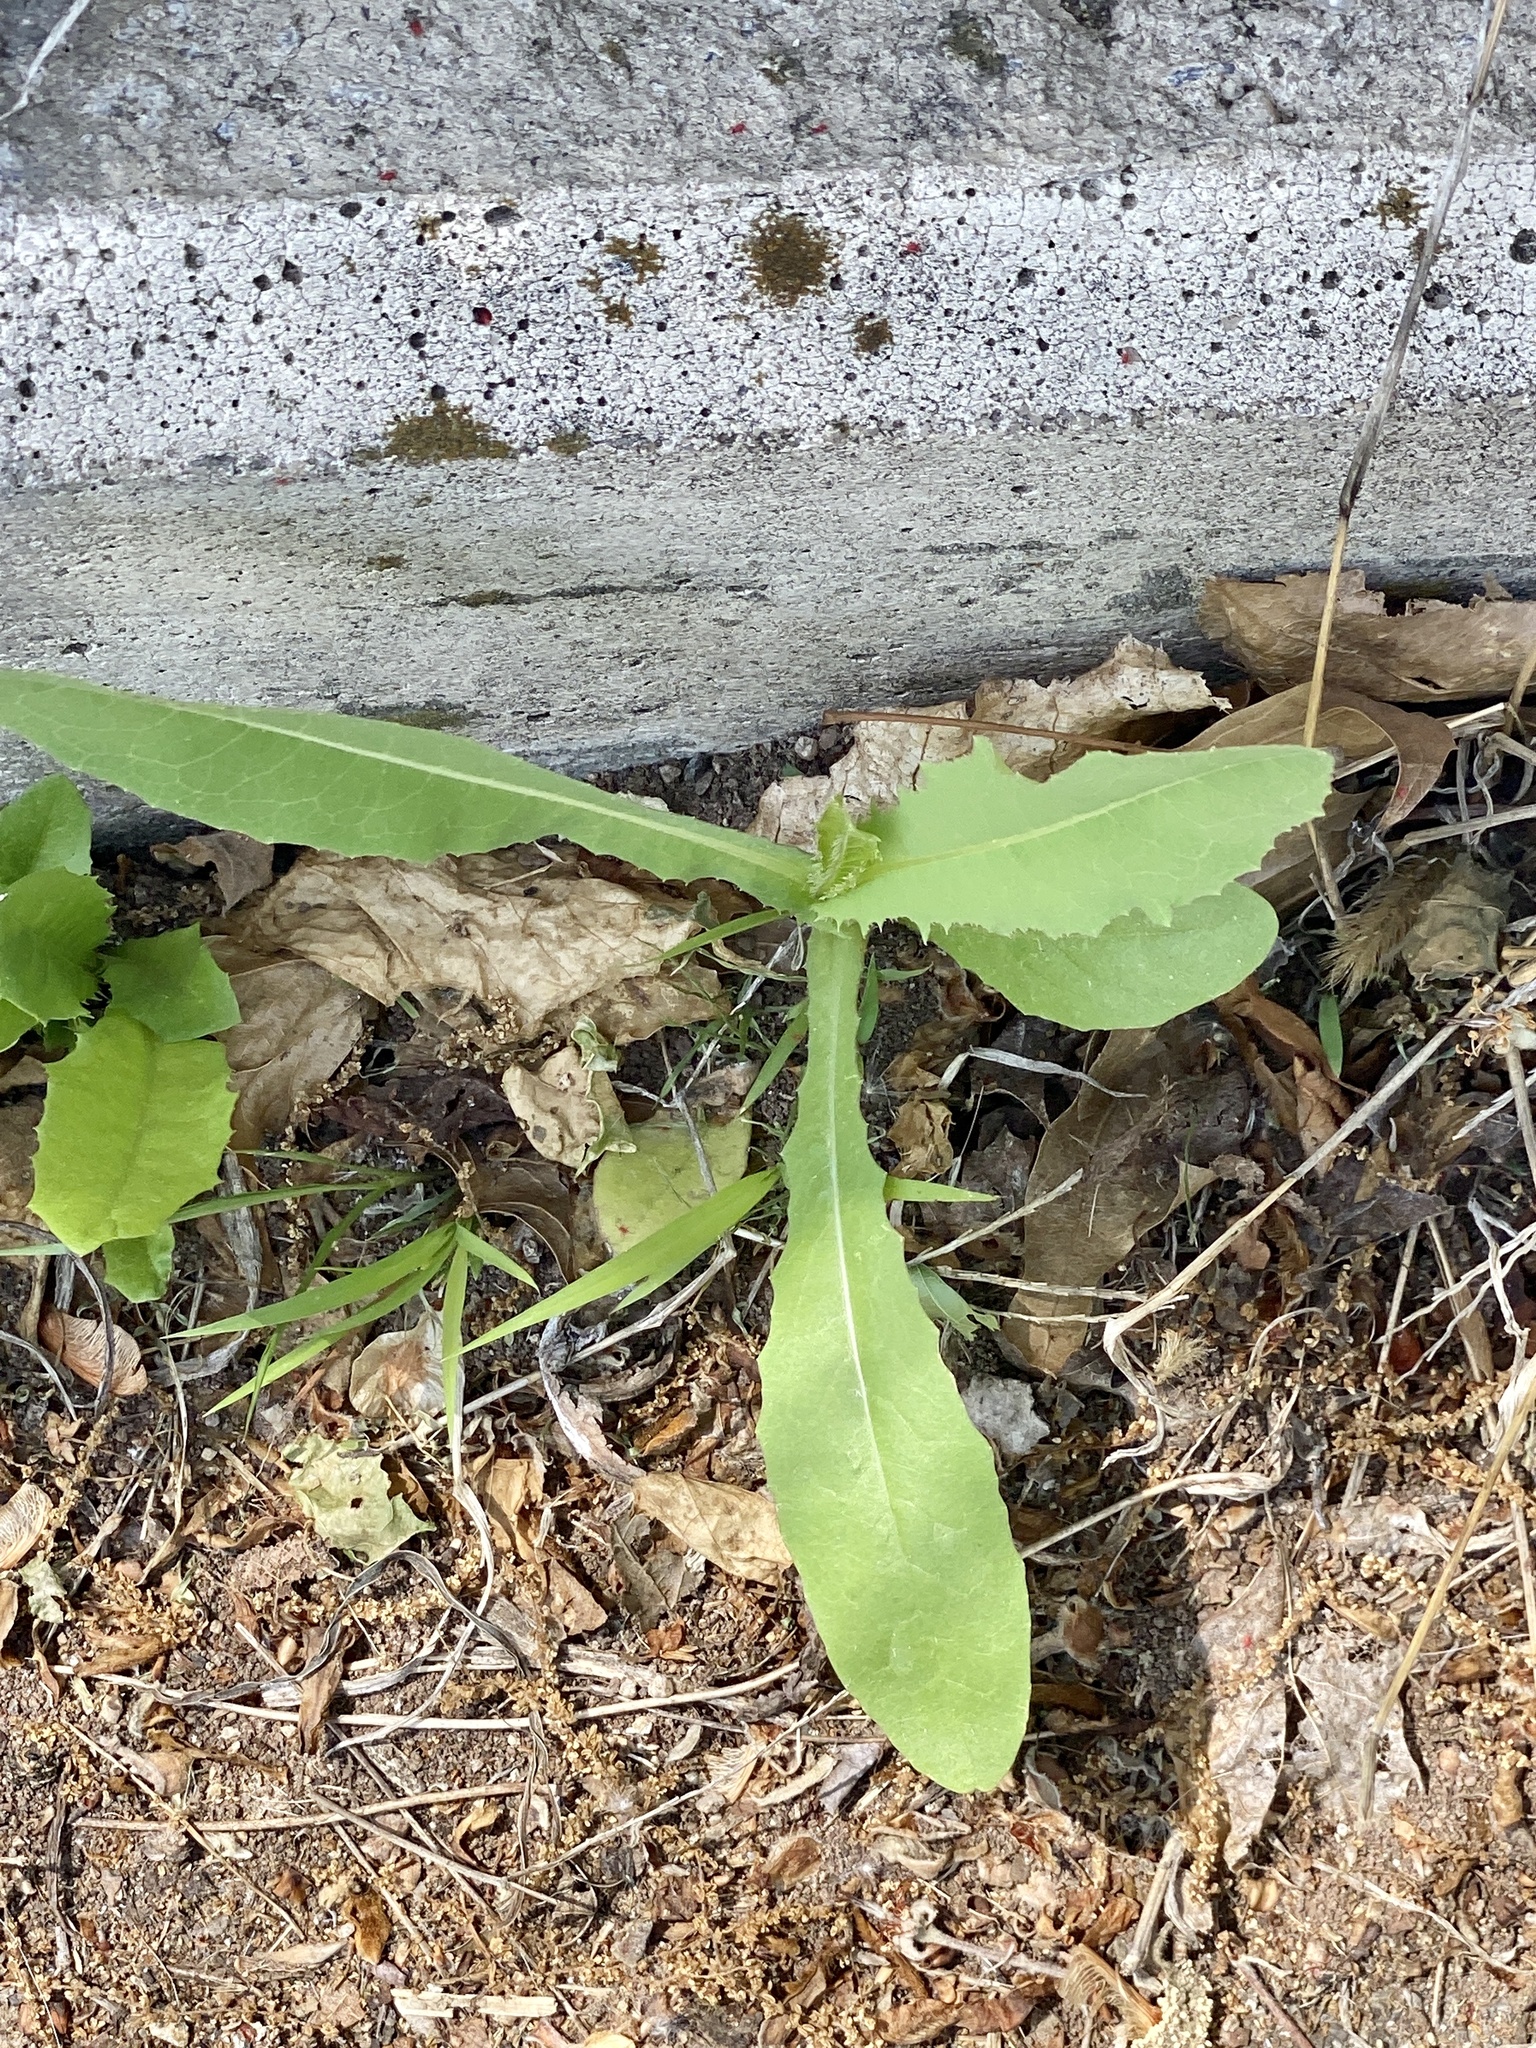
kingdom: Plantae
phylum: Tracheophyta
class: Magnoliopsida
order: Asterales
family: Asteraceae
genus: Lactuca
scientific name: Lactuca serriola
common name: Prickly lettuce
